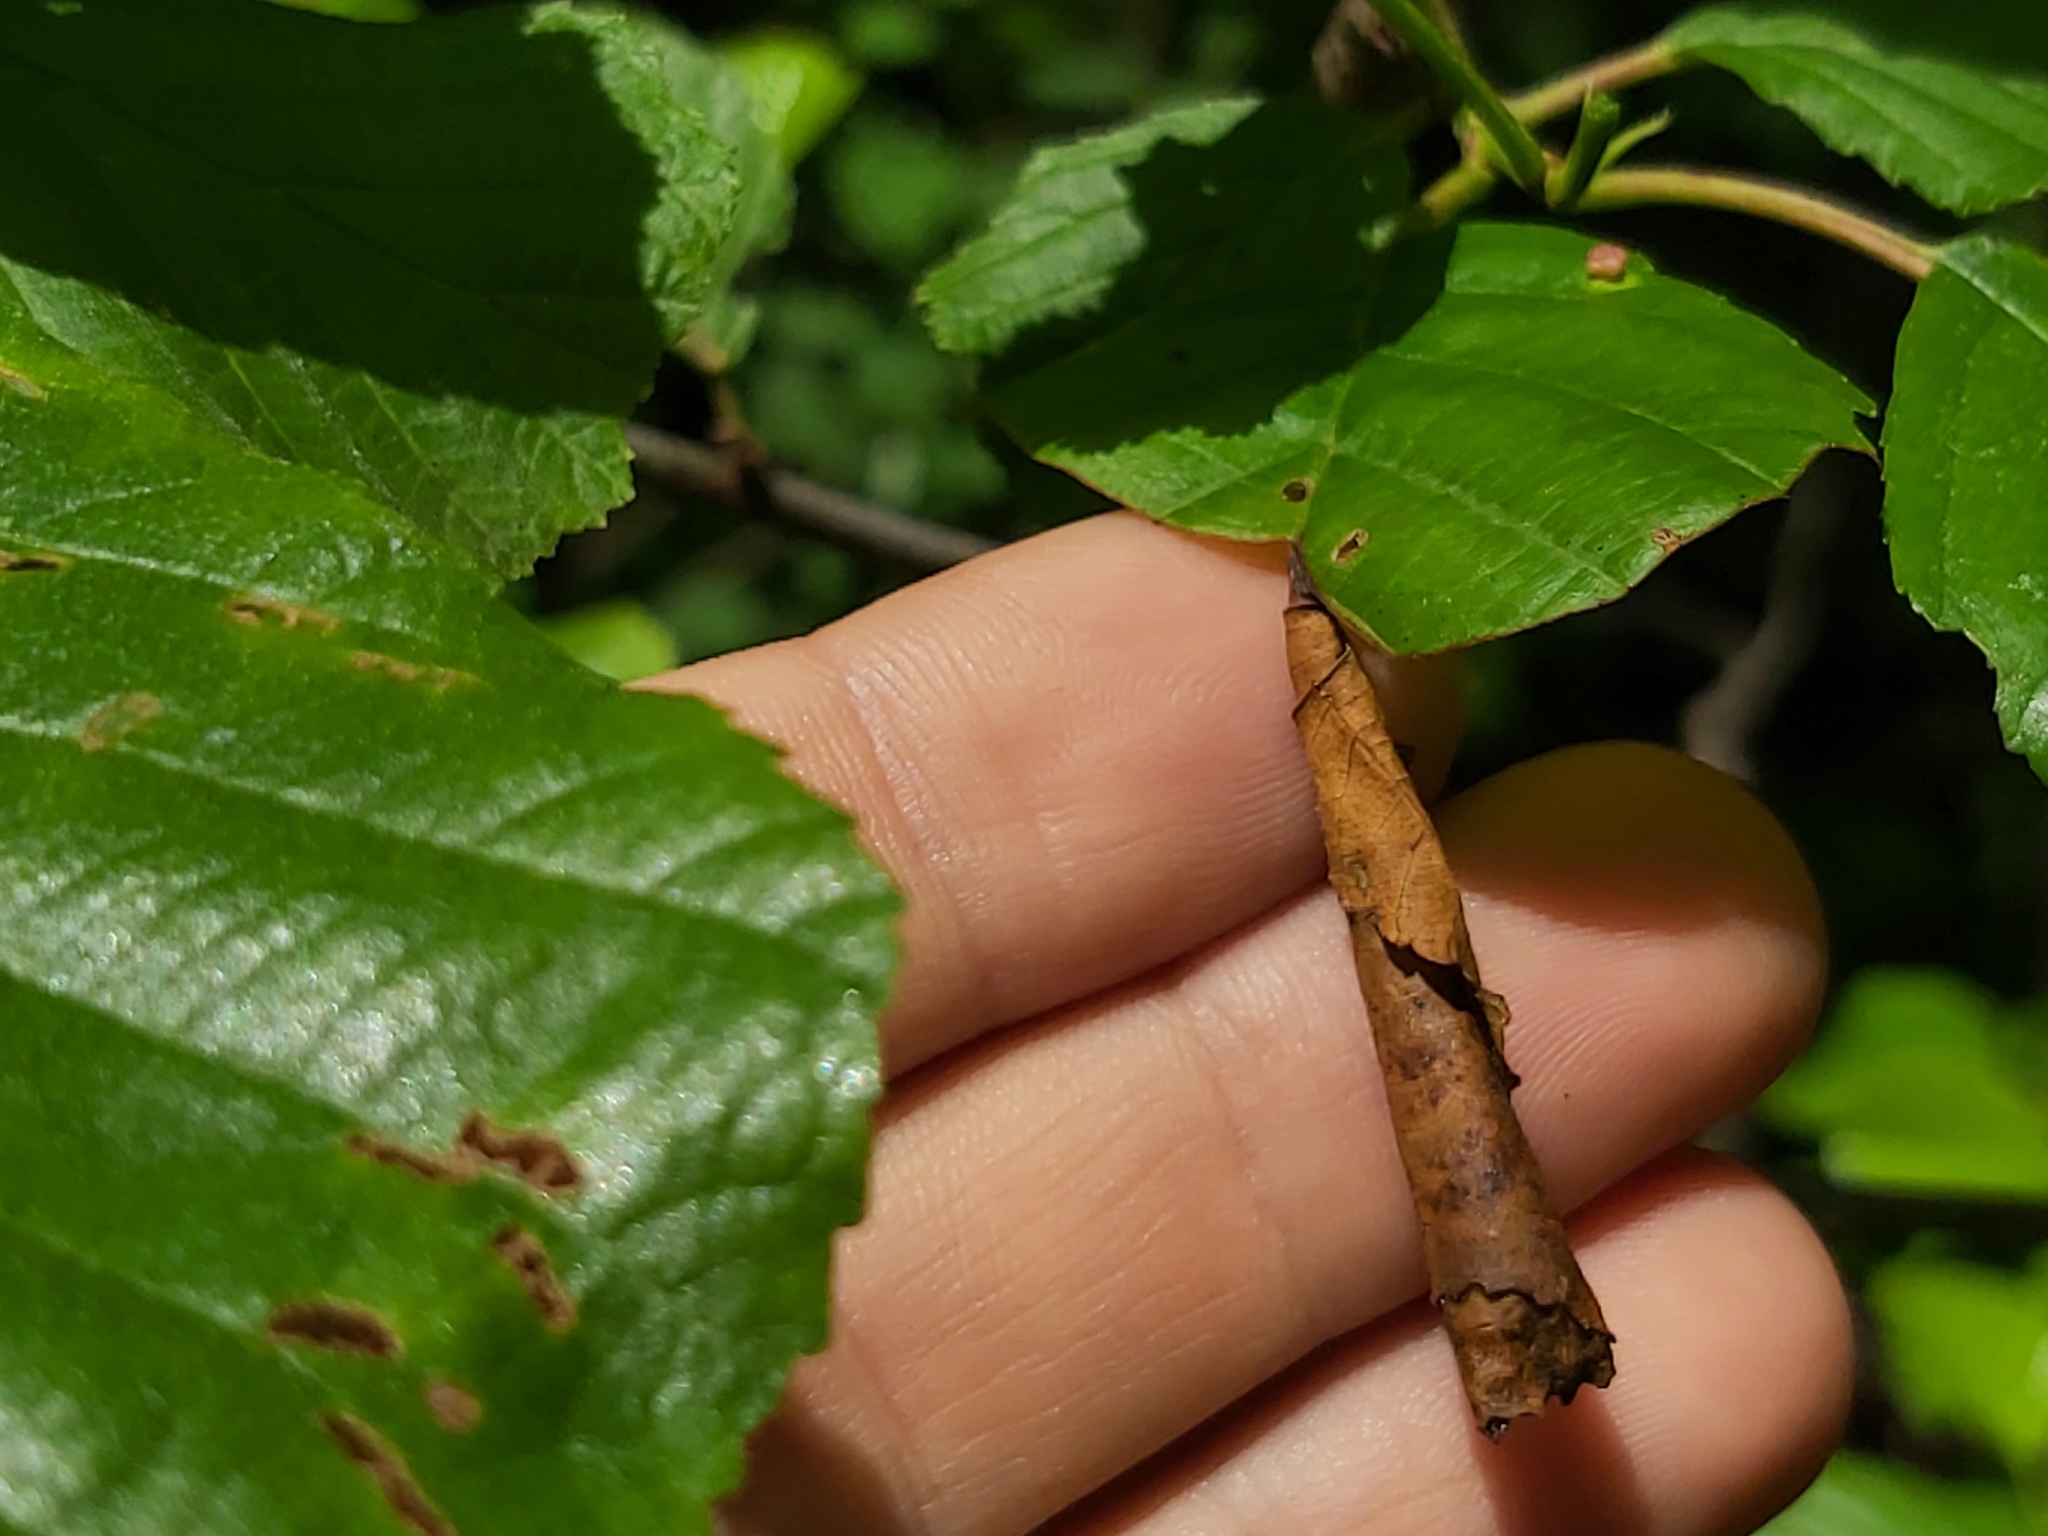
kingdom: Animalia
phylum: Arthropoda
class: Insecta
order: Coleoptera
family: Attelabidae
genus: Deporaus
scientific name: Deporaus betulae
